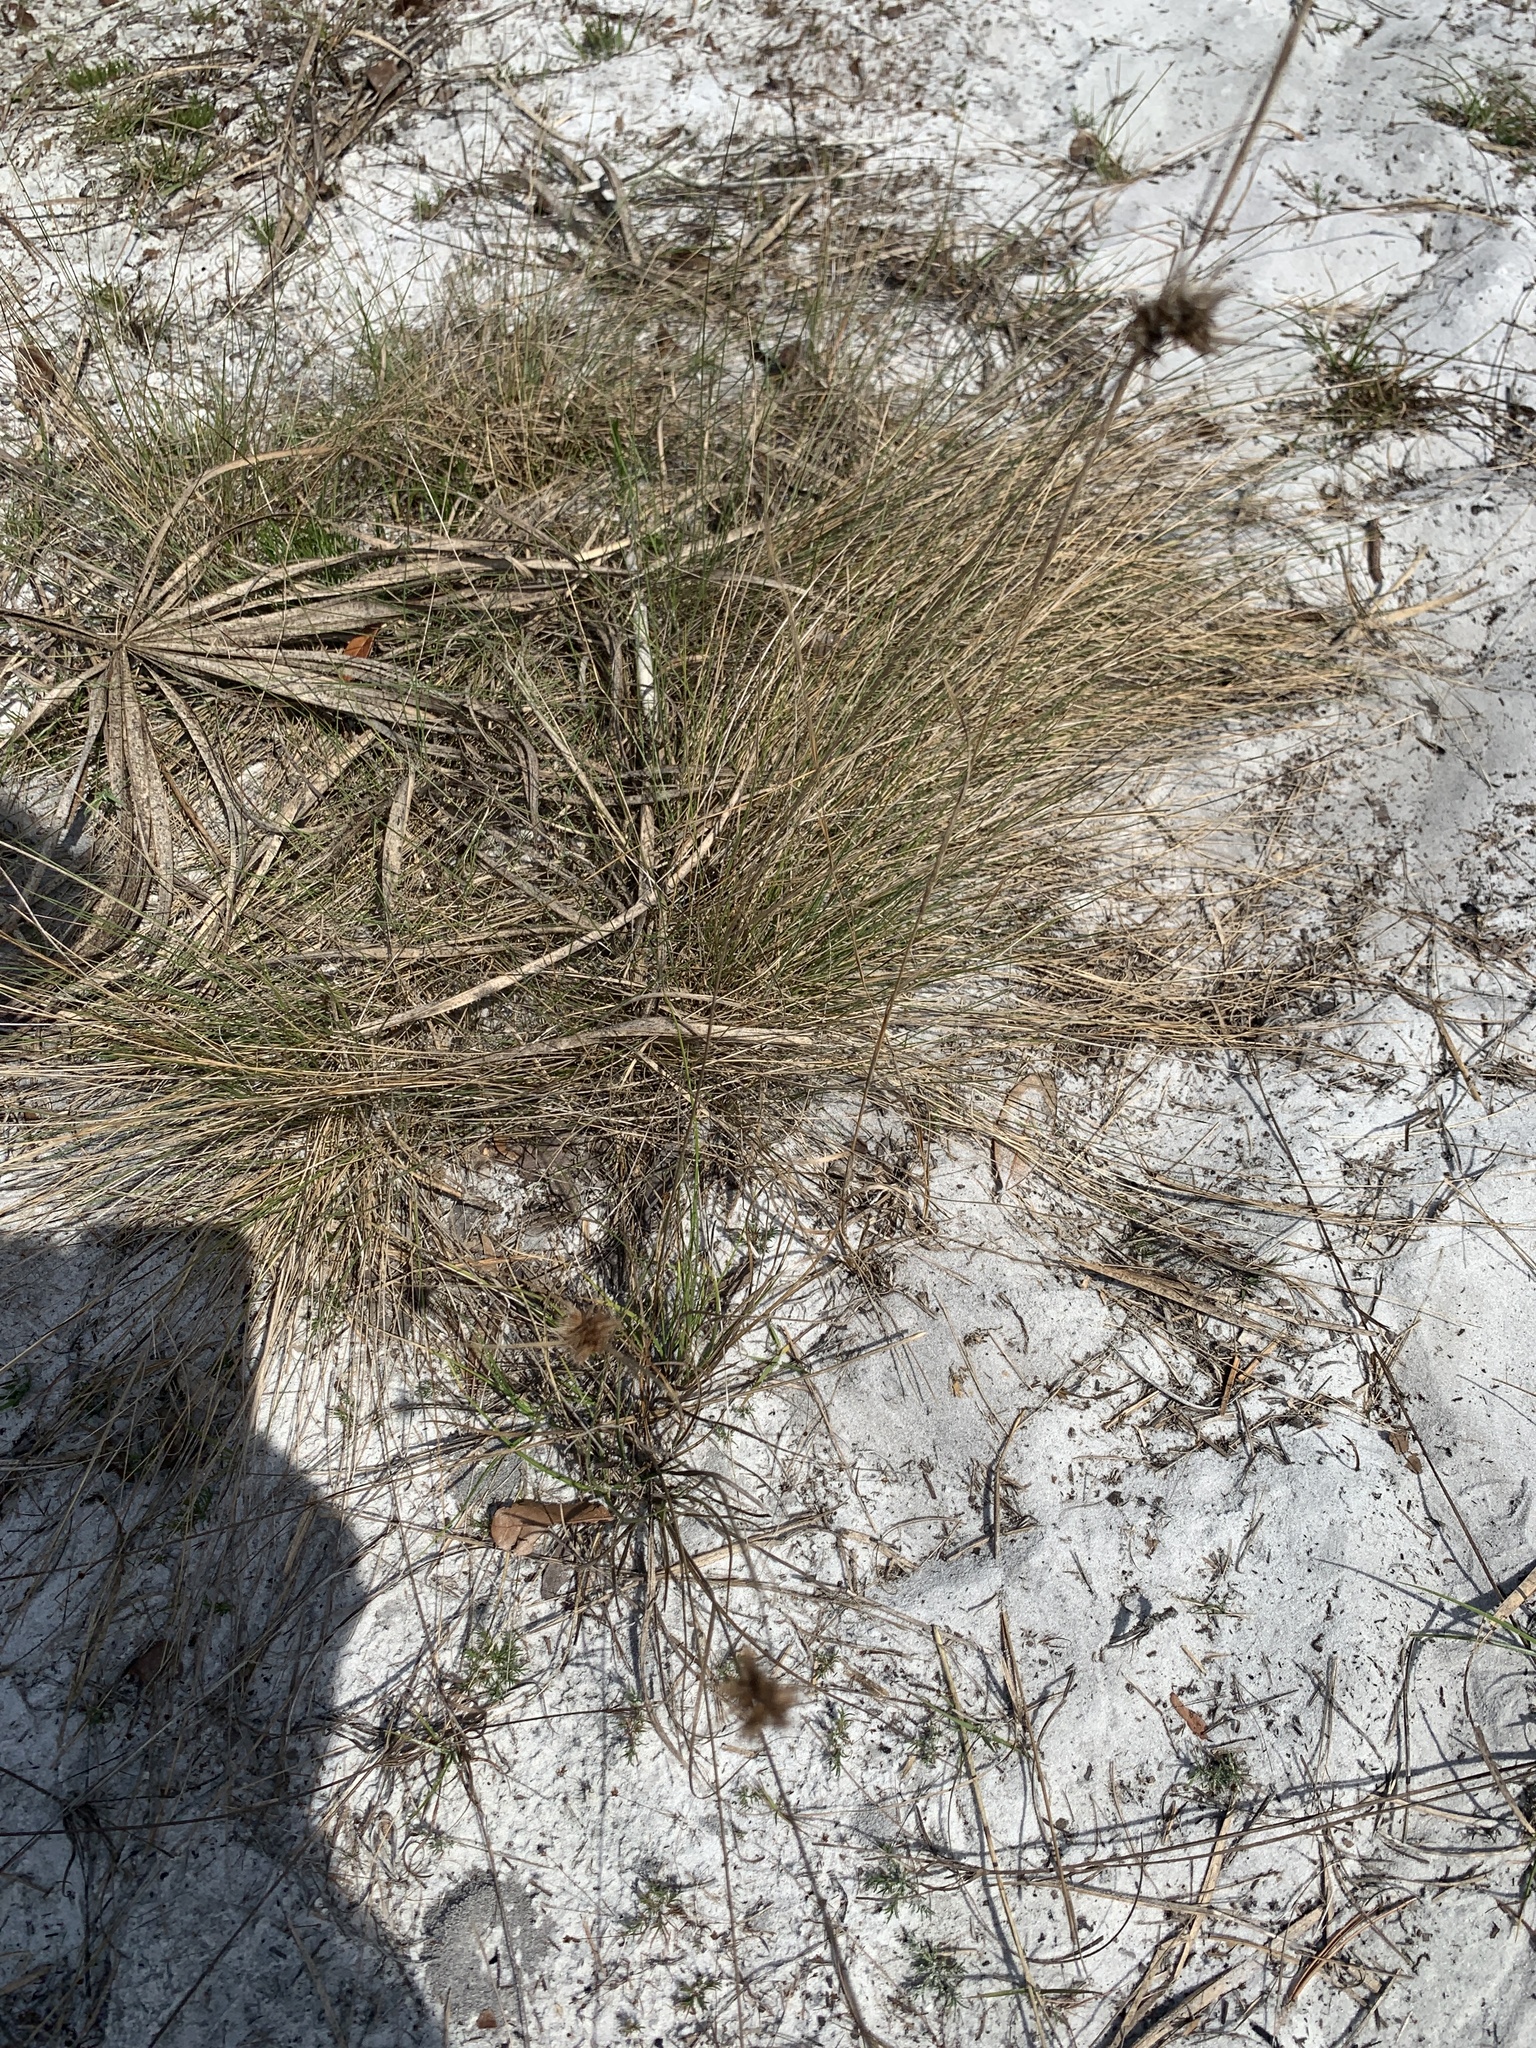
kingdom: Plantae
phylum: Tracheophyta
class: Liliopsida
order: Poales
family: Cyperaceae
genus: Rhynchospora
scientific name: Rhynchospora megaplumosa
